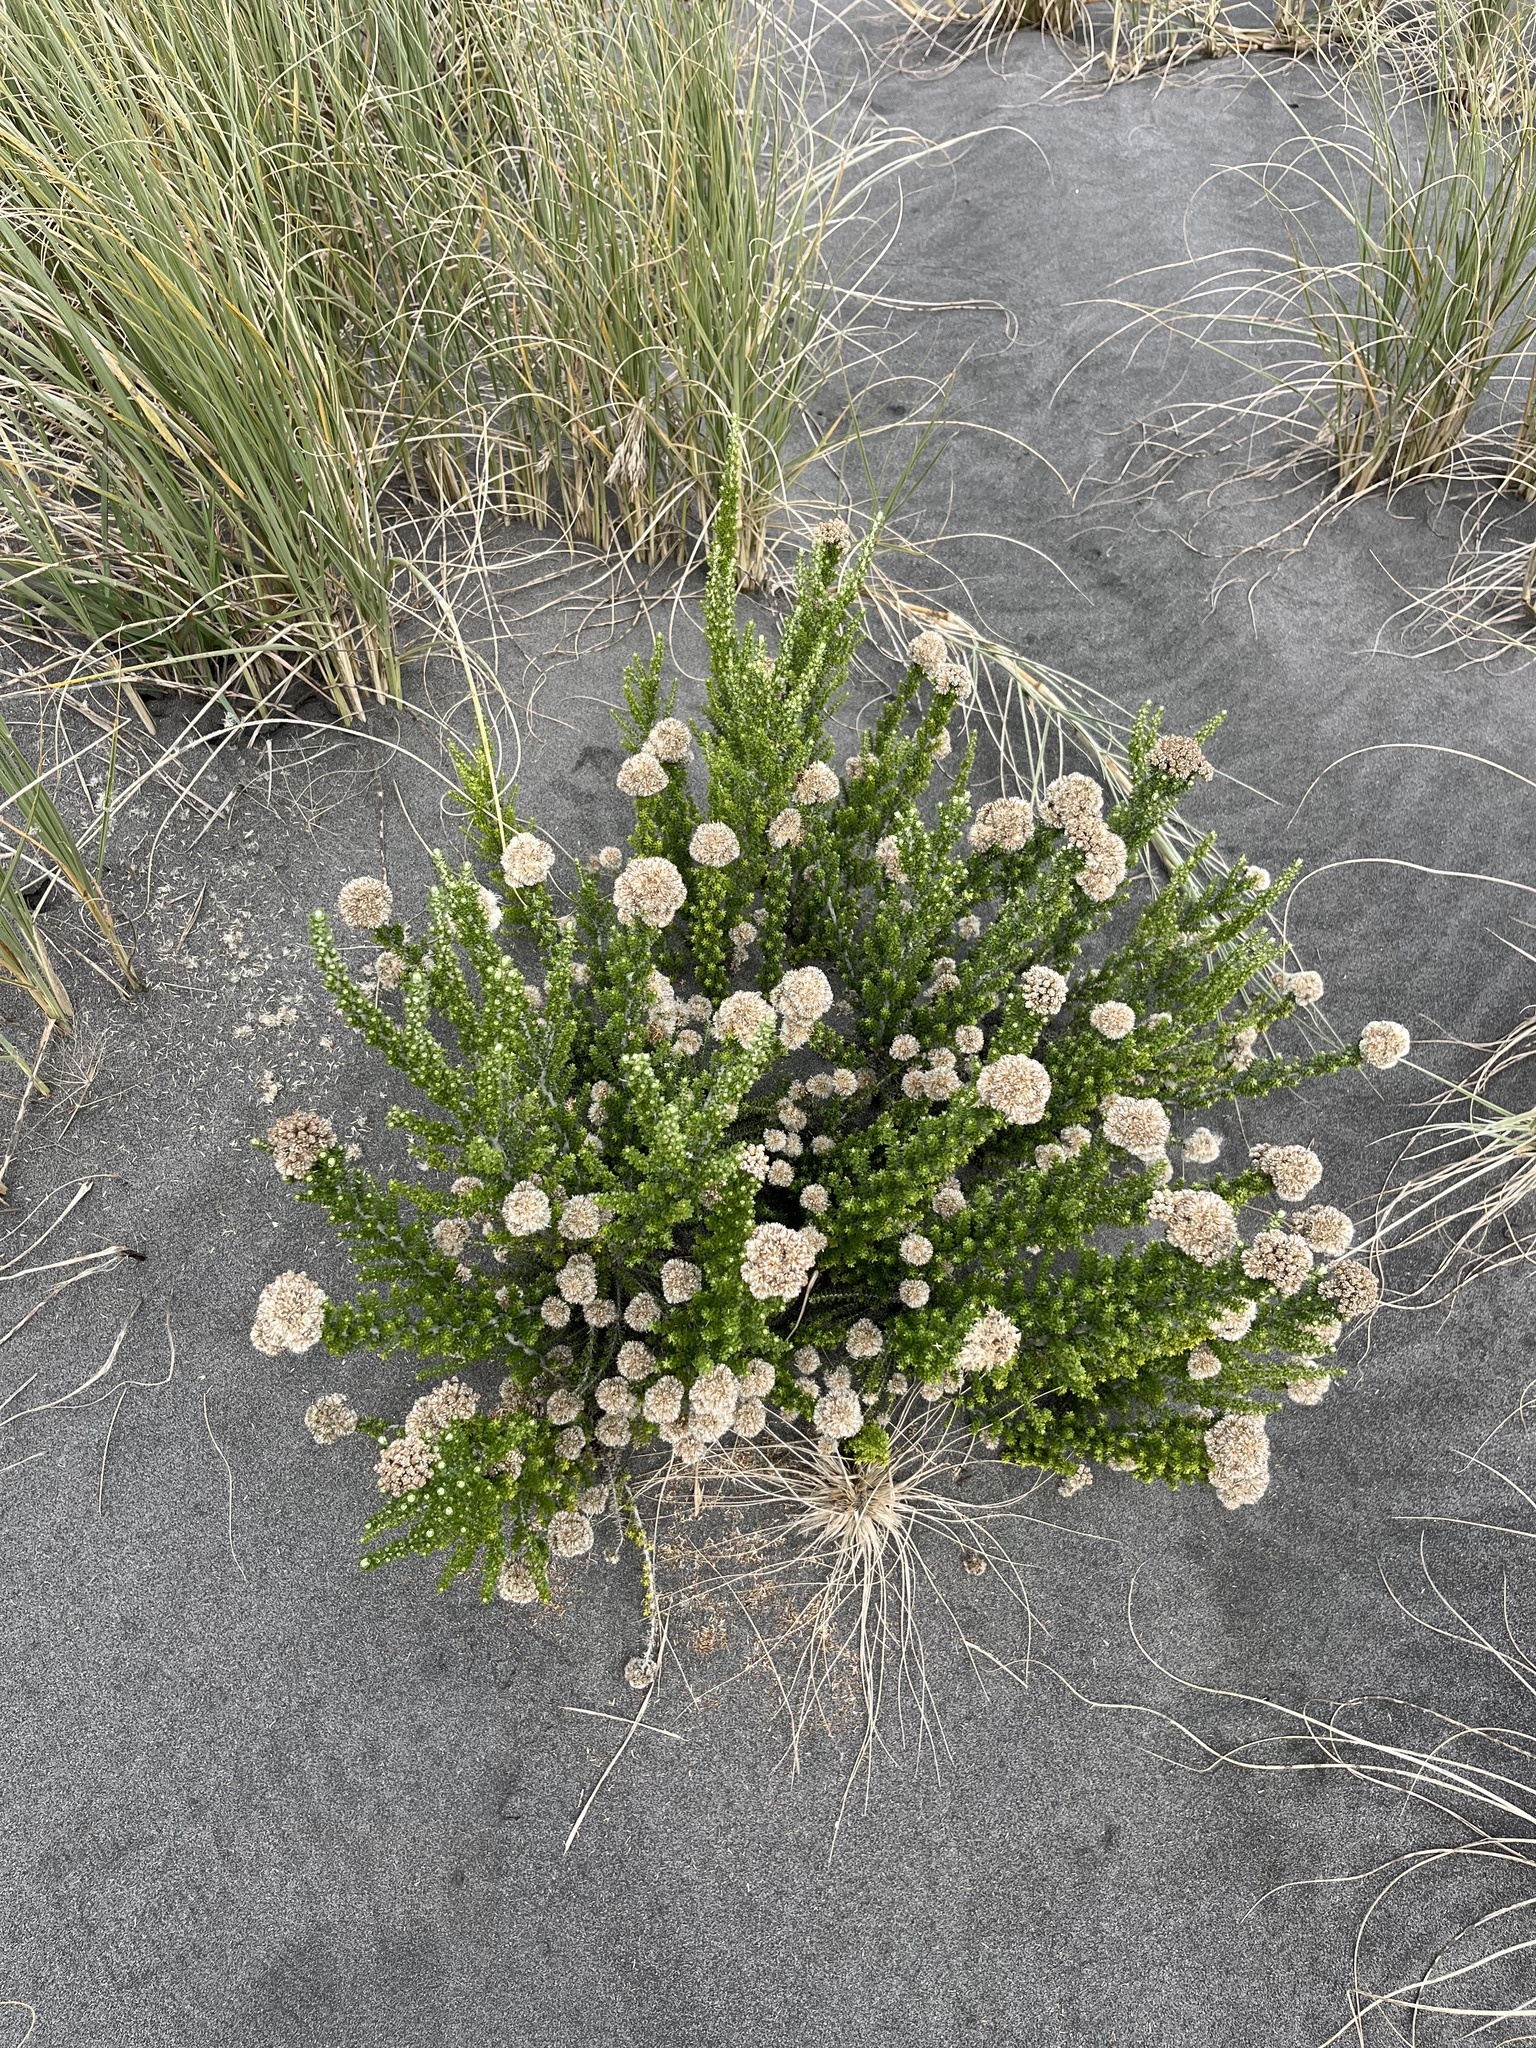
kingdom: Plantae
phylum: Tracheophyta
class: Magnoliopsida
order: Asterales
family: Asteraceae
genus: Ozothamnus
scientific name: Ozothamnus leptophyllus
